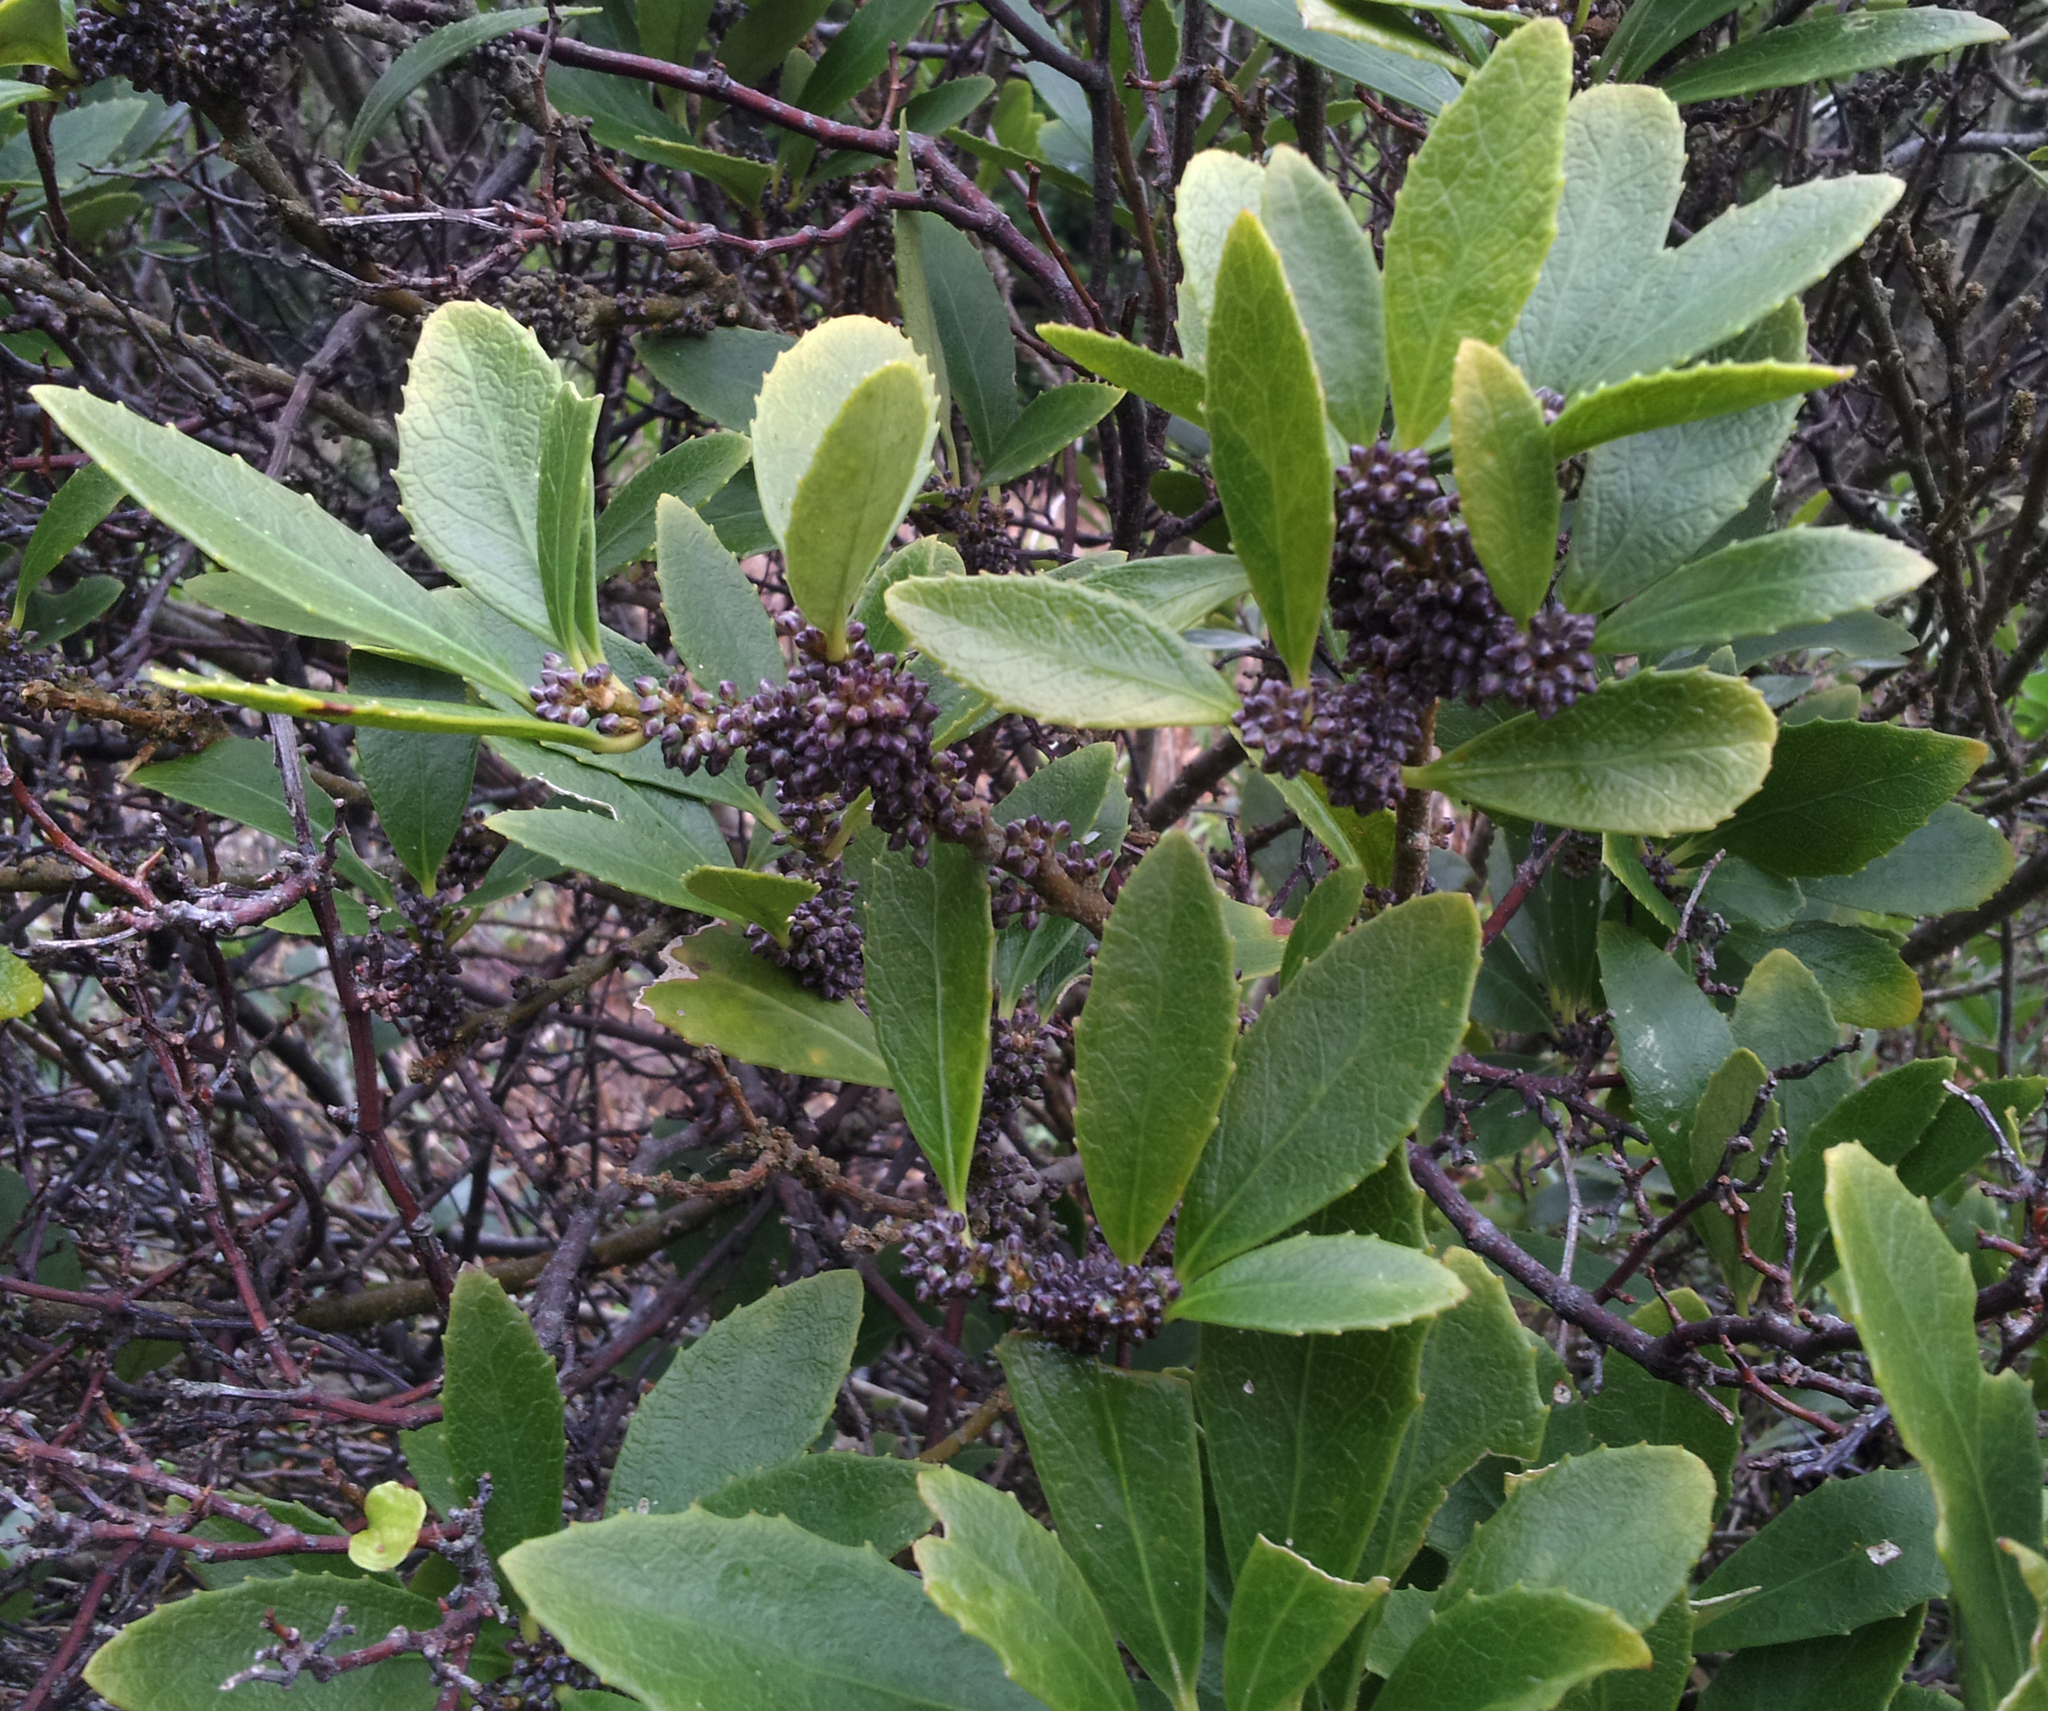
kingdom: Plantae
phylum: Tracheophyta
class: Magnoliopsida
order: Malpighiales
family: Violaceae
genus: Melicytus
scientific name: Melicytus chathamicus
